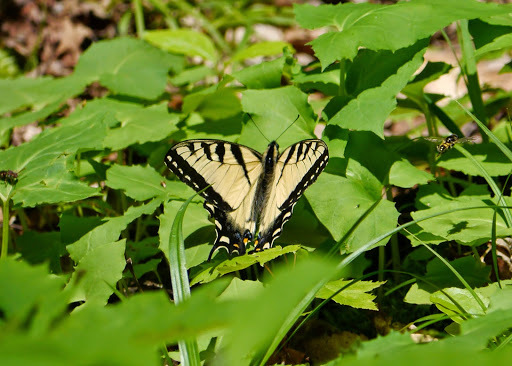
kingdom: Animalia
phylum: Arthropoda
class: Insecta
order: Lepidoptera
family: Papilionidae
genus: Papilio
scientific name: Papilio glaucus
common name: Tiger swallowtail
